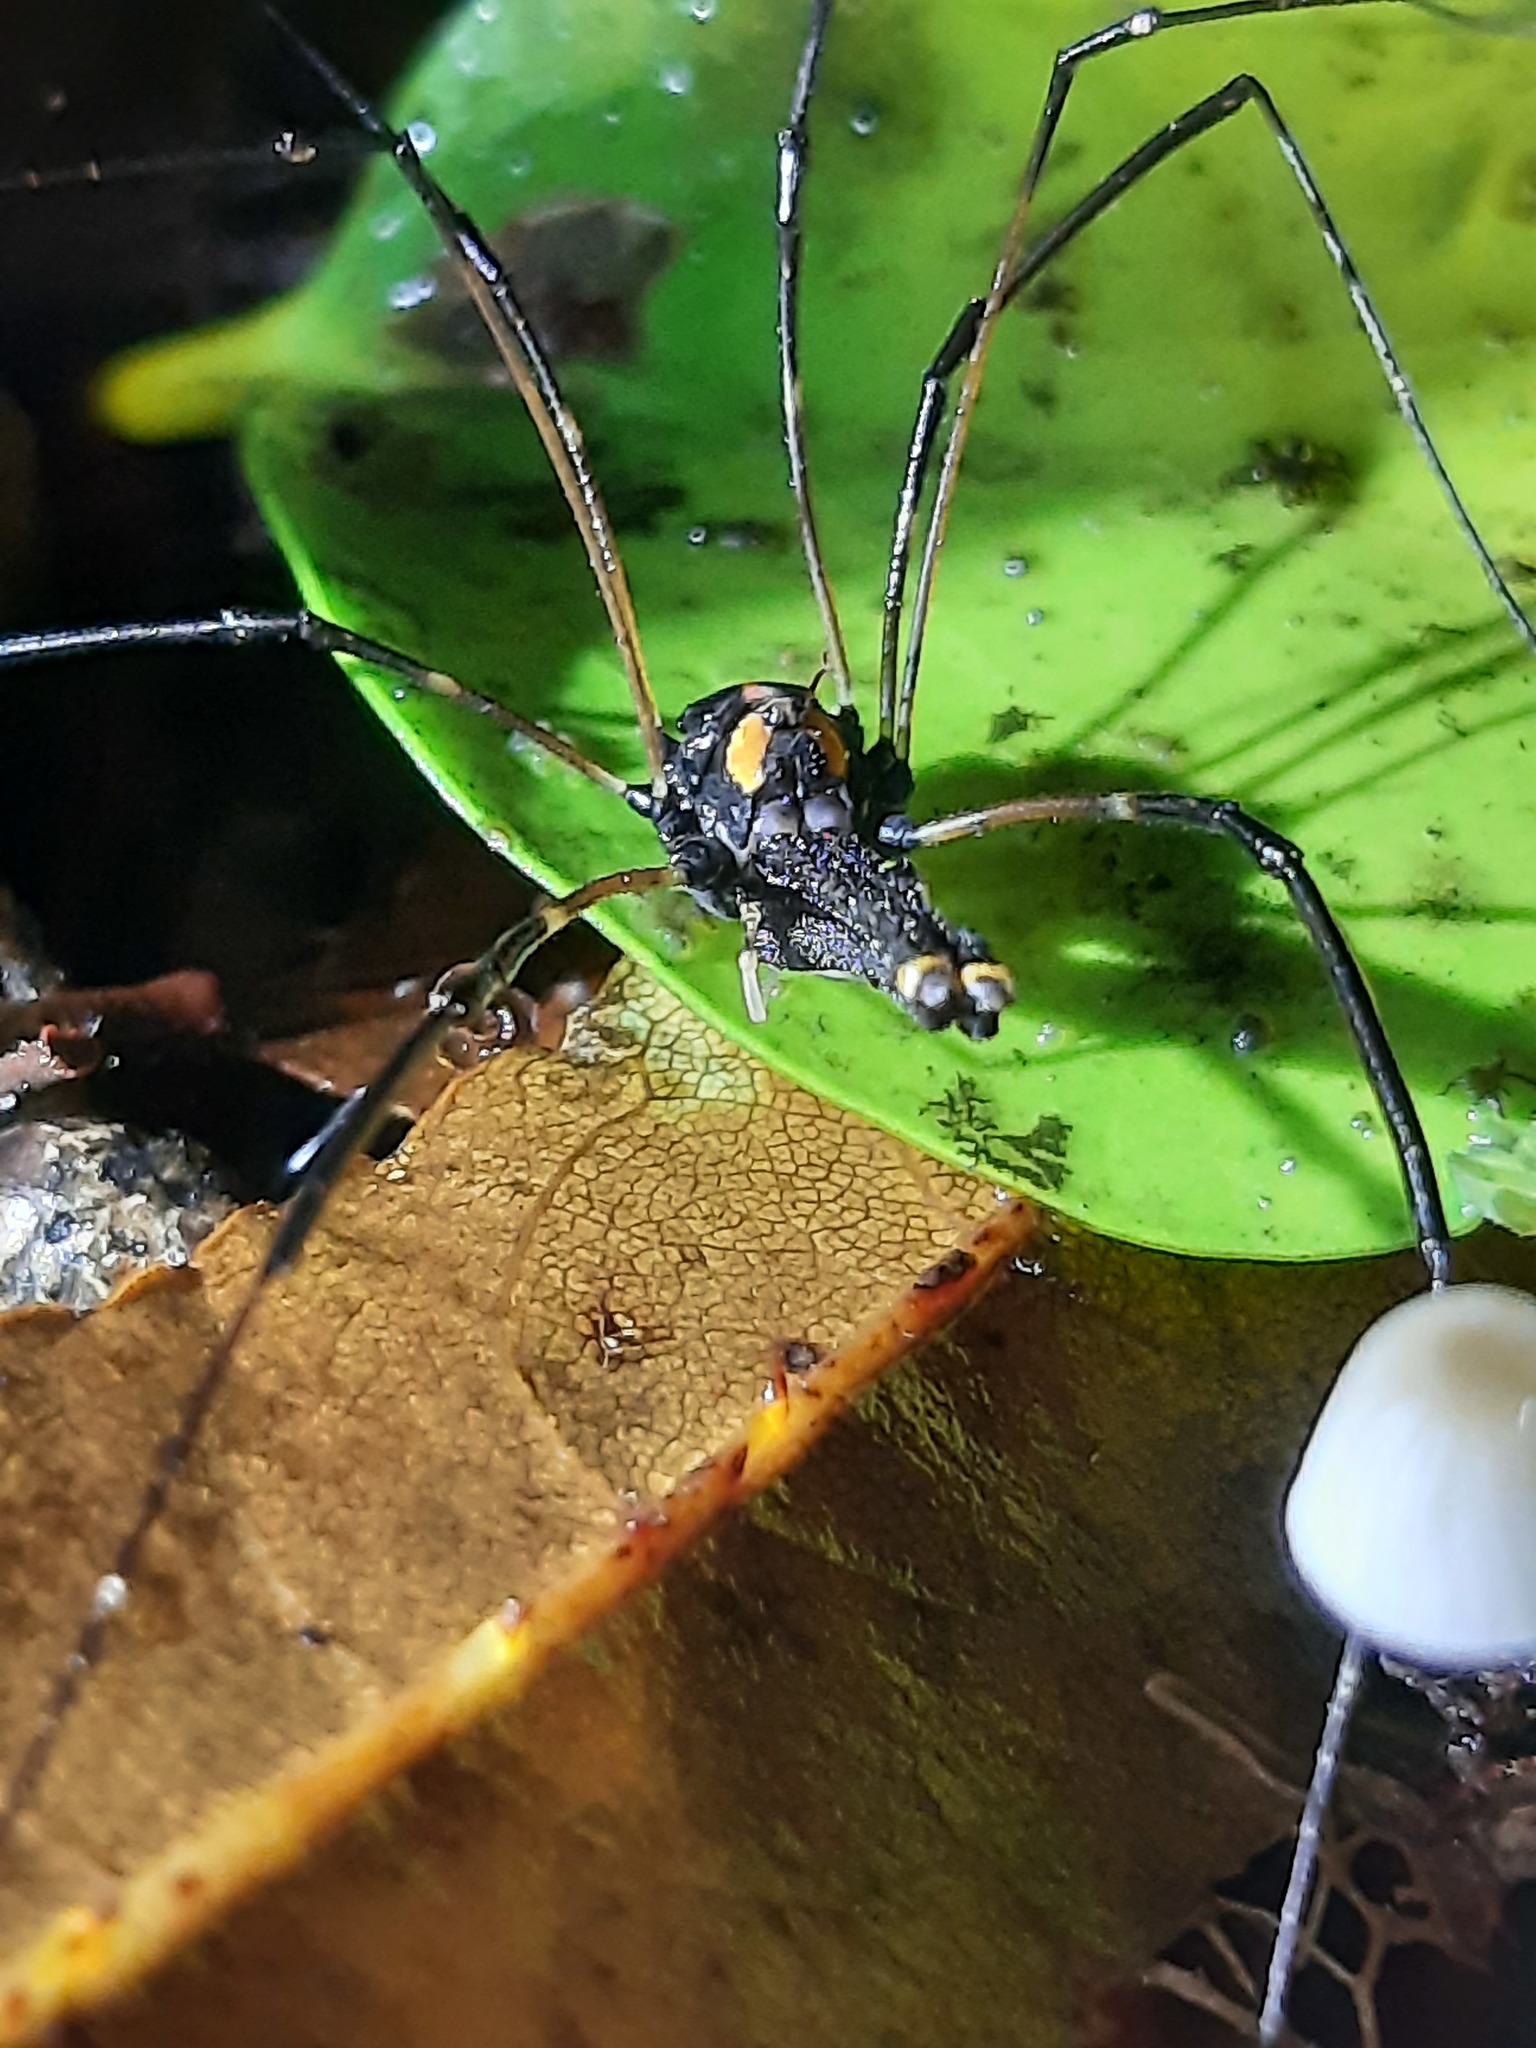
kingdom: Animalia
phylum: Arthropoda
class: Arachnida
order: Opiliones
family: Neopilionidae
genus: Forsteropsalis
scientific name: Forsteropsalis wattsi
